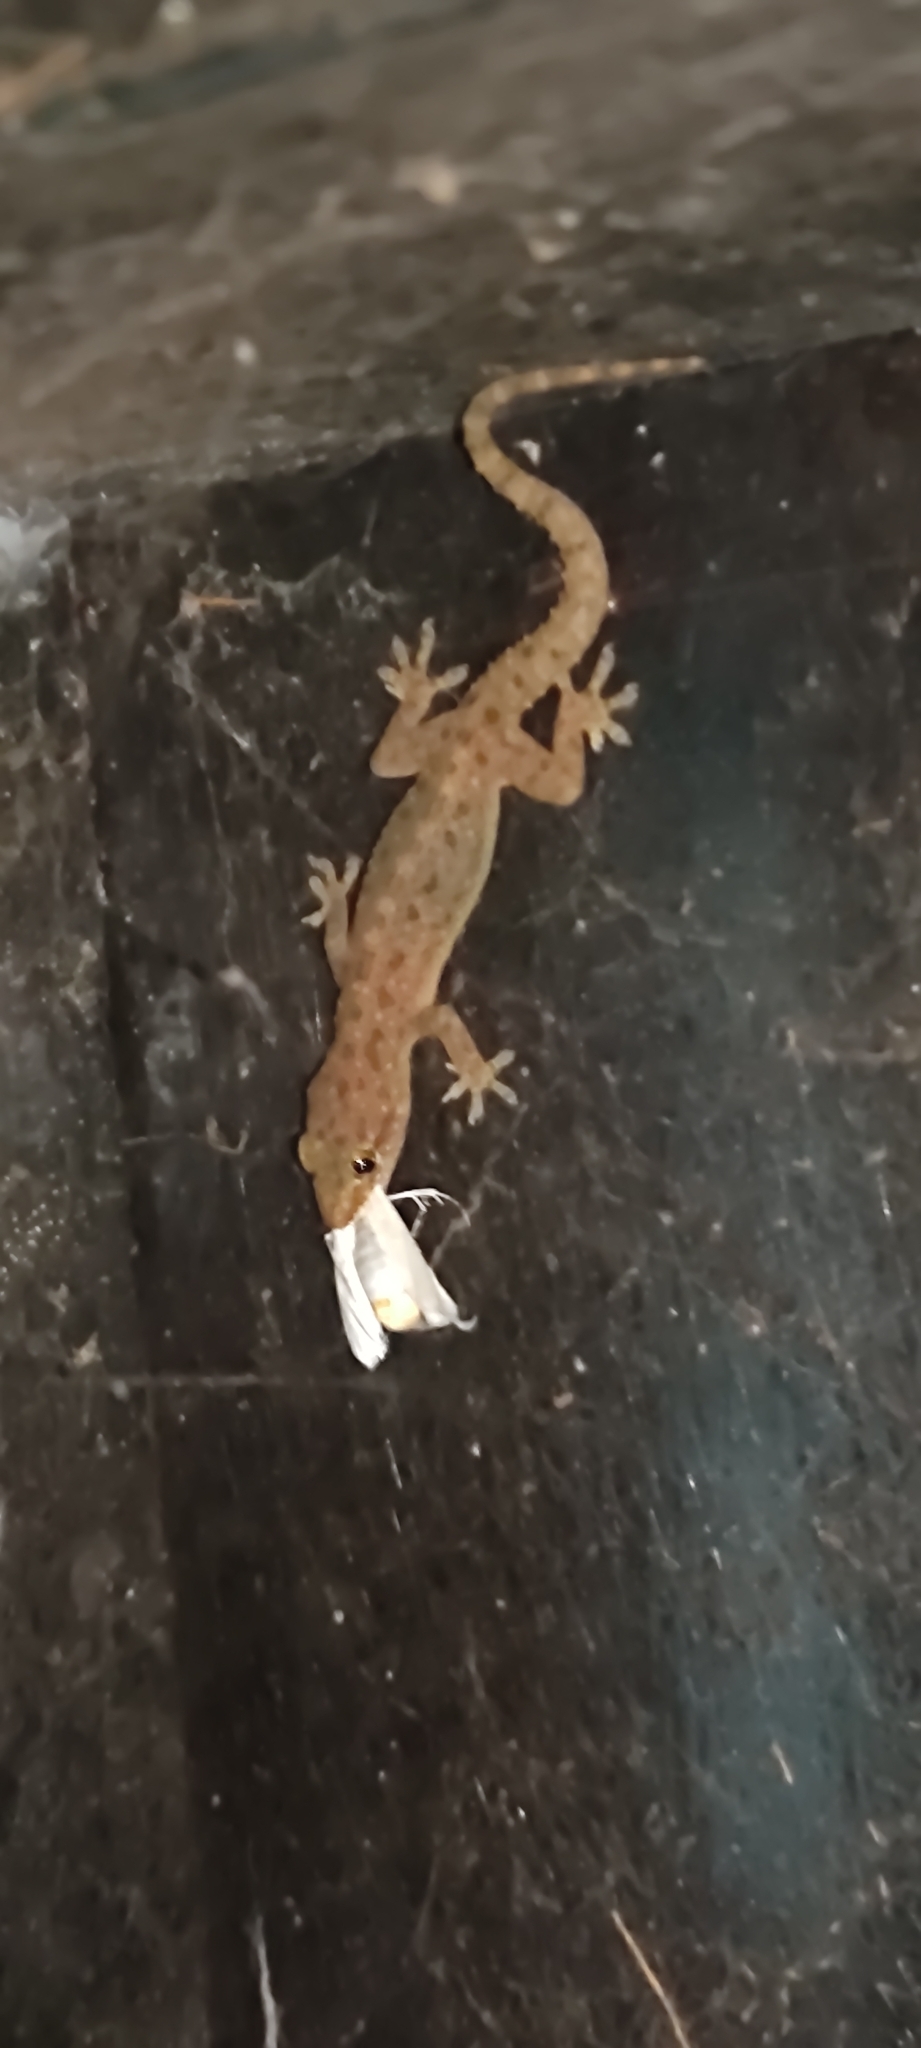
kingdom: Animalia
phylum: Chordata
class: Squamata
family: Gekkonidae
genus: Hemidactylus
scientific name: Hemidactylus parvimaculatus
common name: Spotted house gecko
